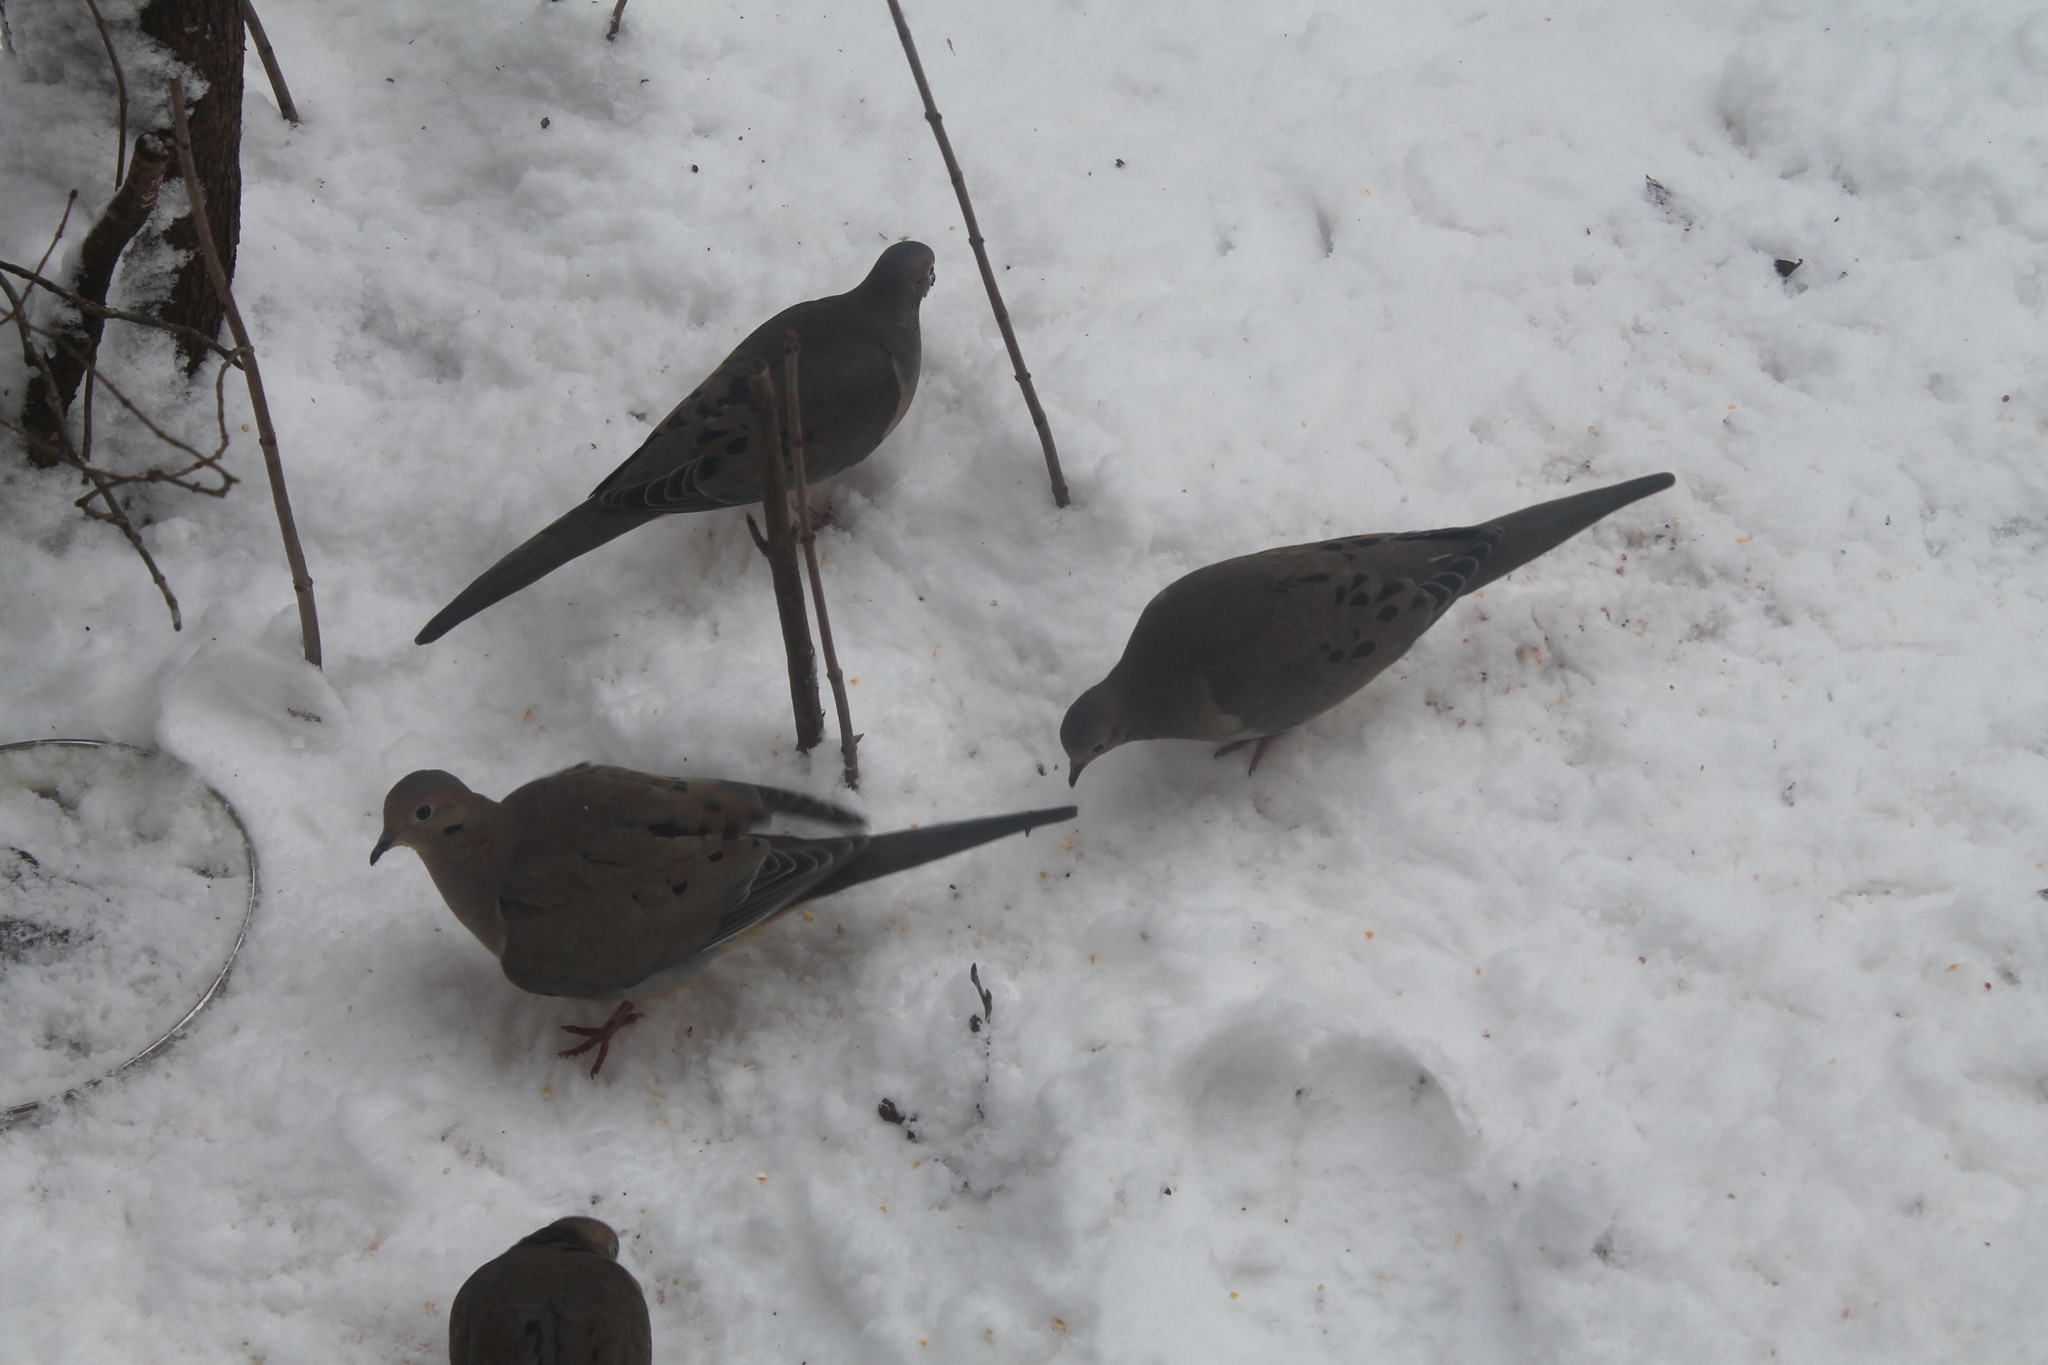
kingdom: Animalia
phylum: Chordata
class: Aves
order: Columbiformes
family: Columbidae
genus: Zenaida
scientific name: Zenaida macroura
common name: Mourning dove
